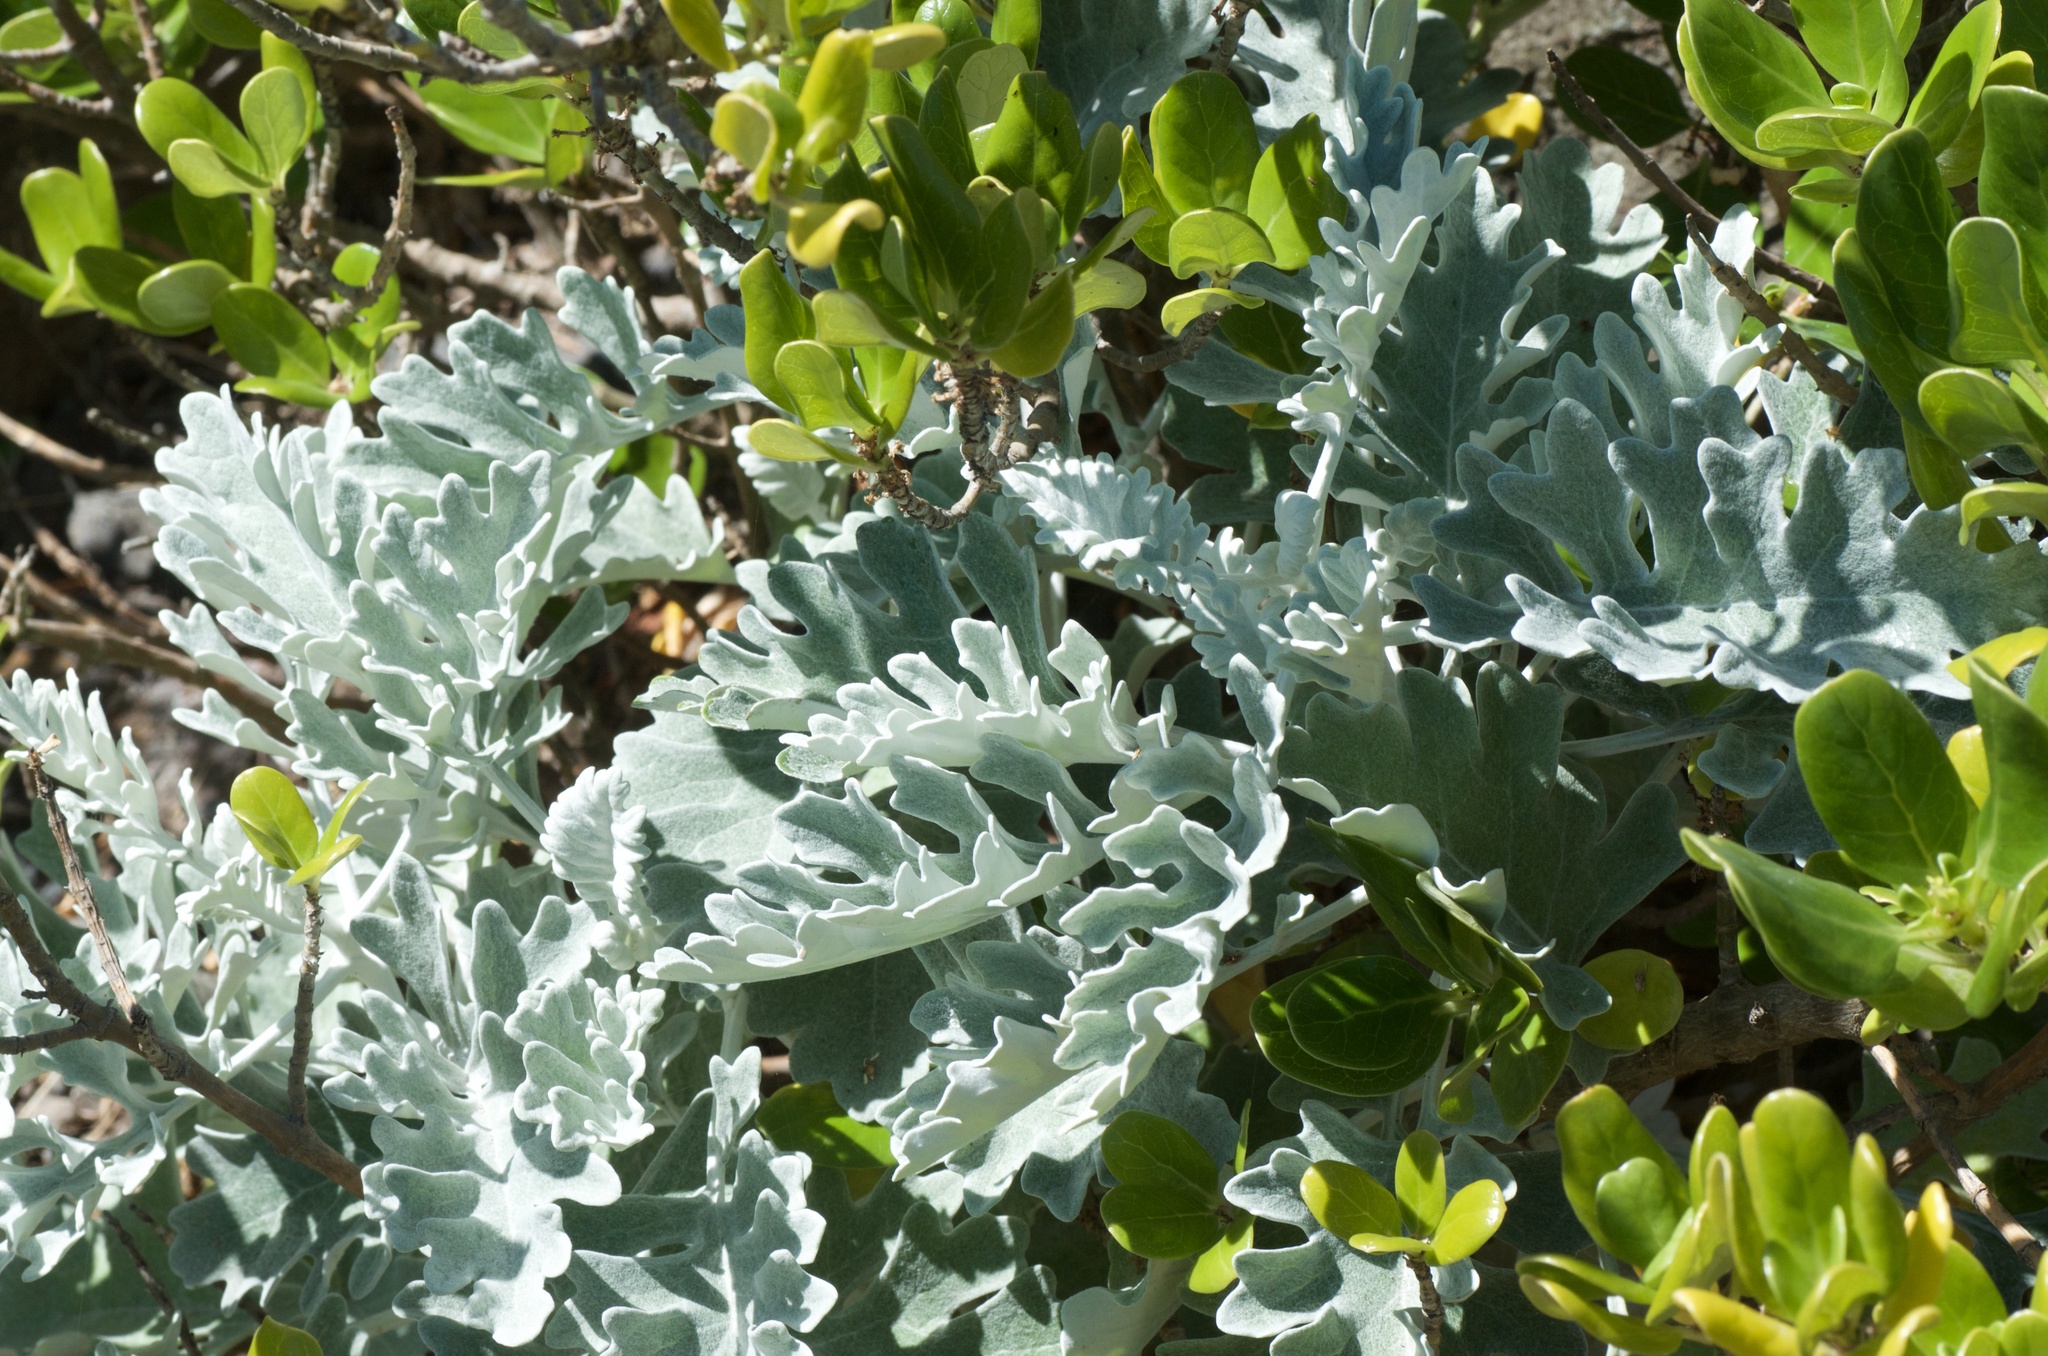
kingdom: Plantae
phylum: Tracheophyta
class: Magnoliopsida
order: Asterales
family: Asteraceae
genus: Jacobaea
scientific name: Jacobaea maritima
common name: Silver ragwort
